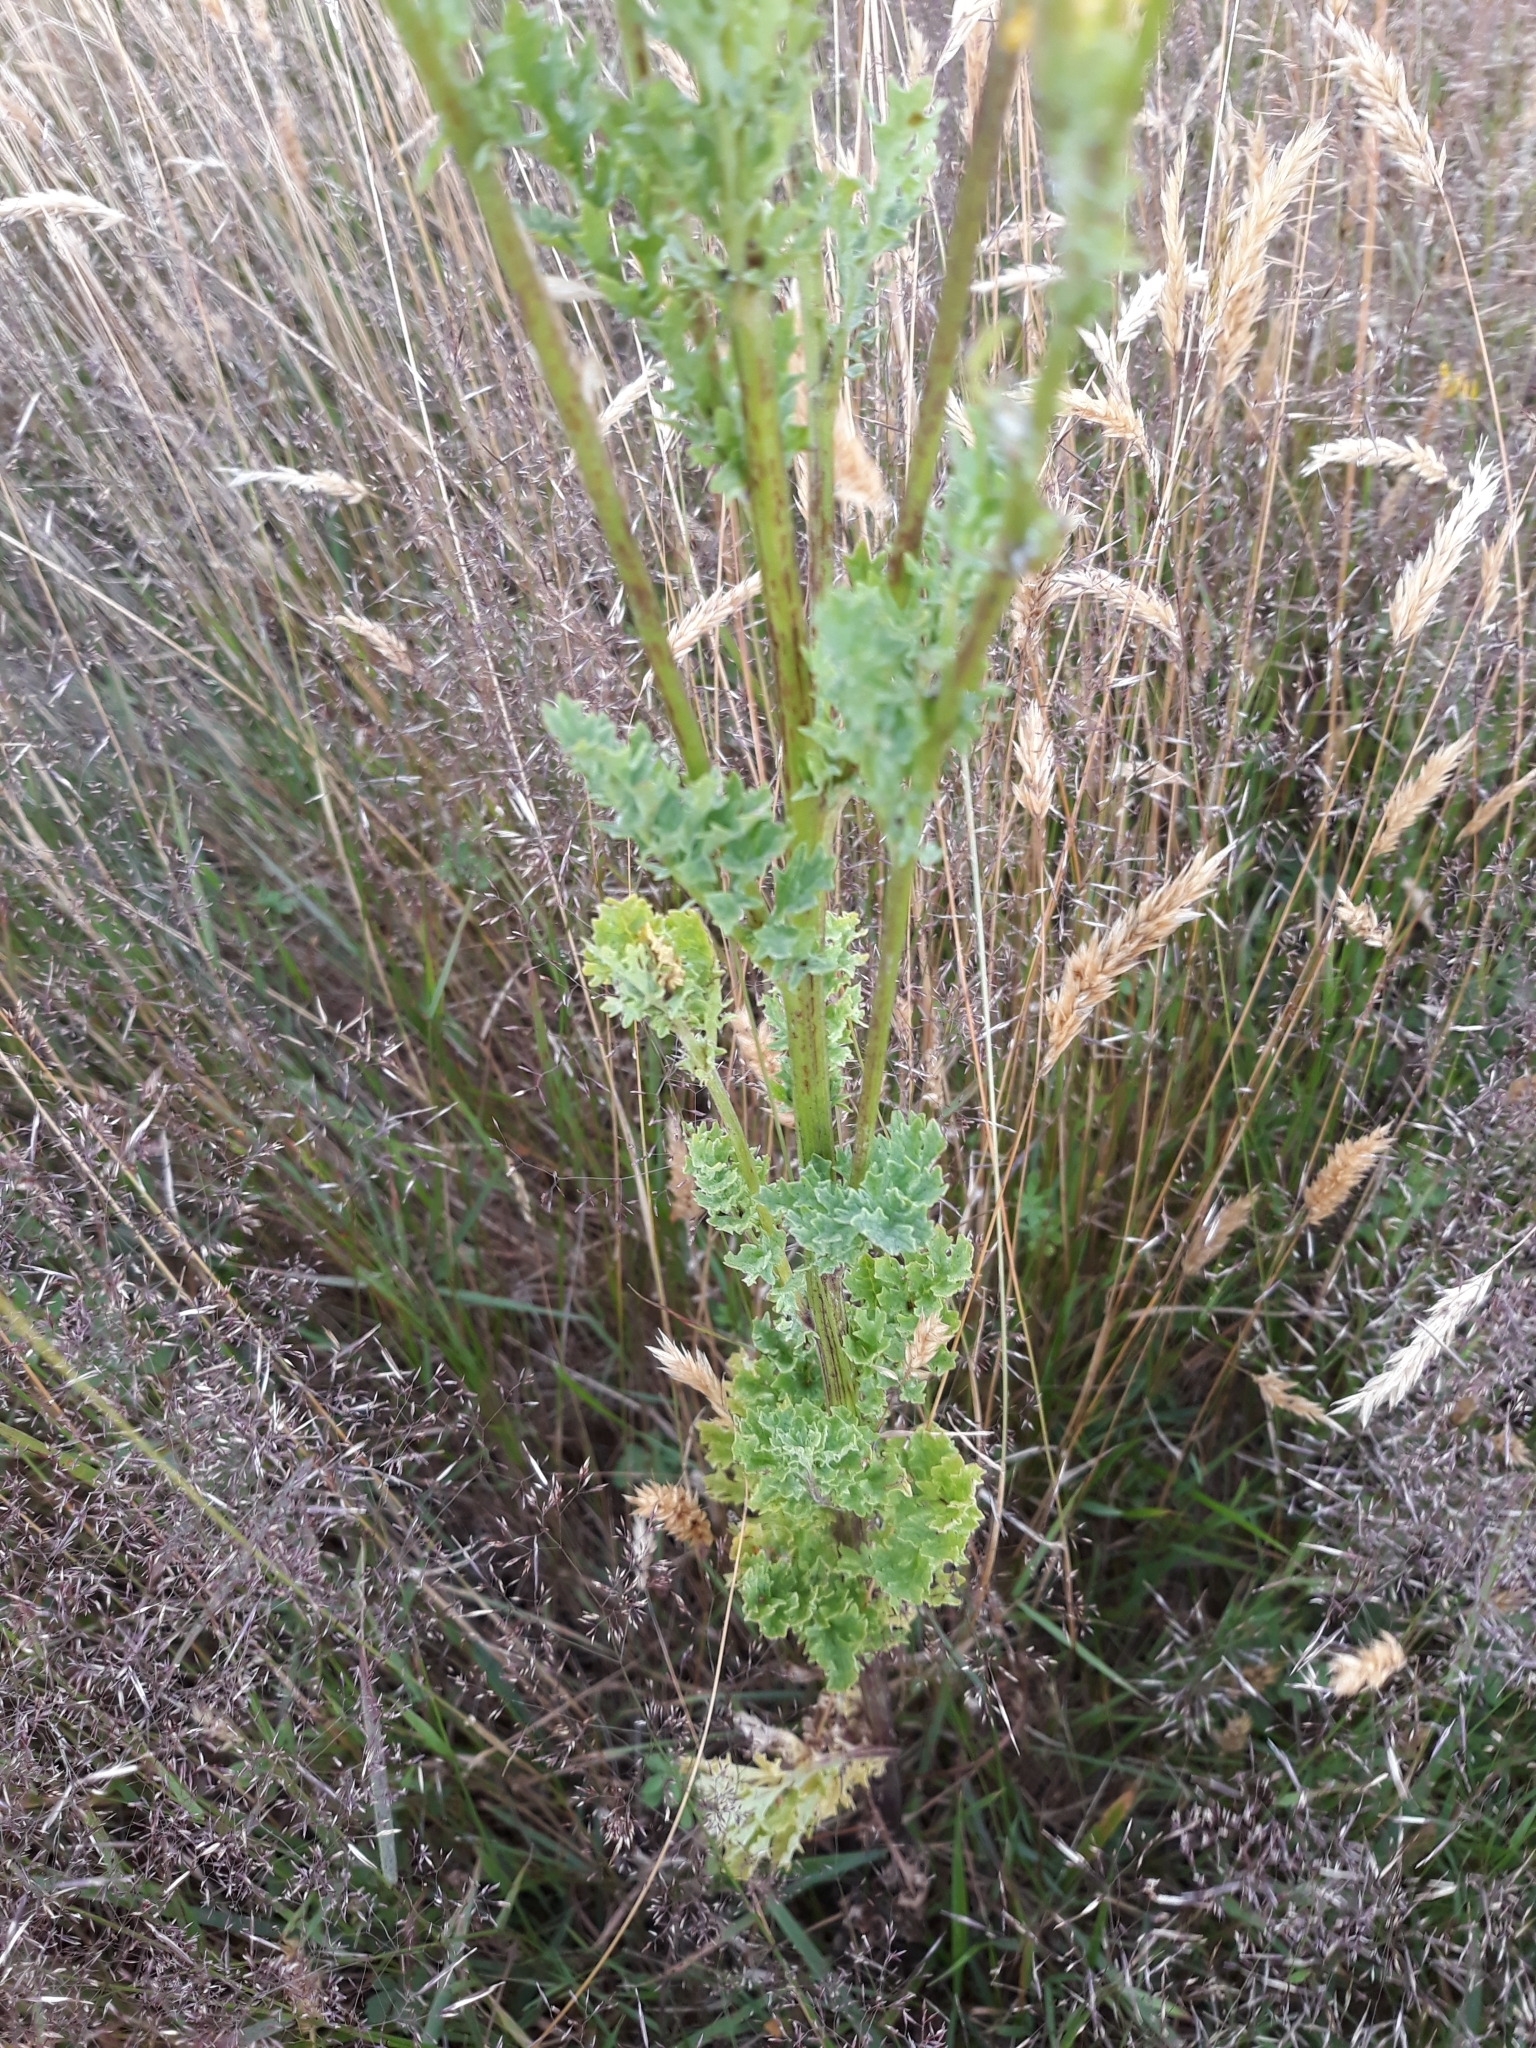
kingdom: Plantae
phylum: Tracheophyta
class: Magnoliopsida
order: Asterales
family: Asteraceae
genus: Jacobaea
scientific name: Jacobaea vulgaris
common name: Stinking willie
